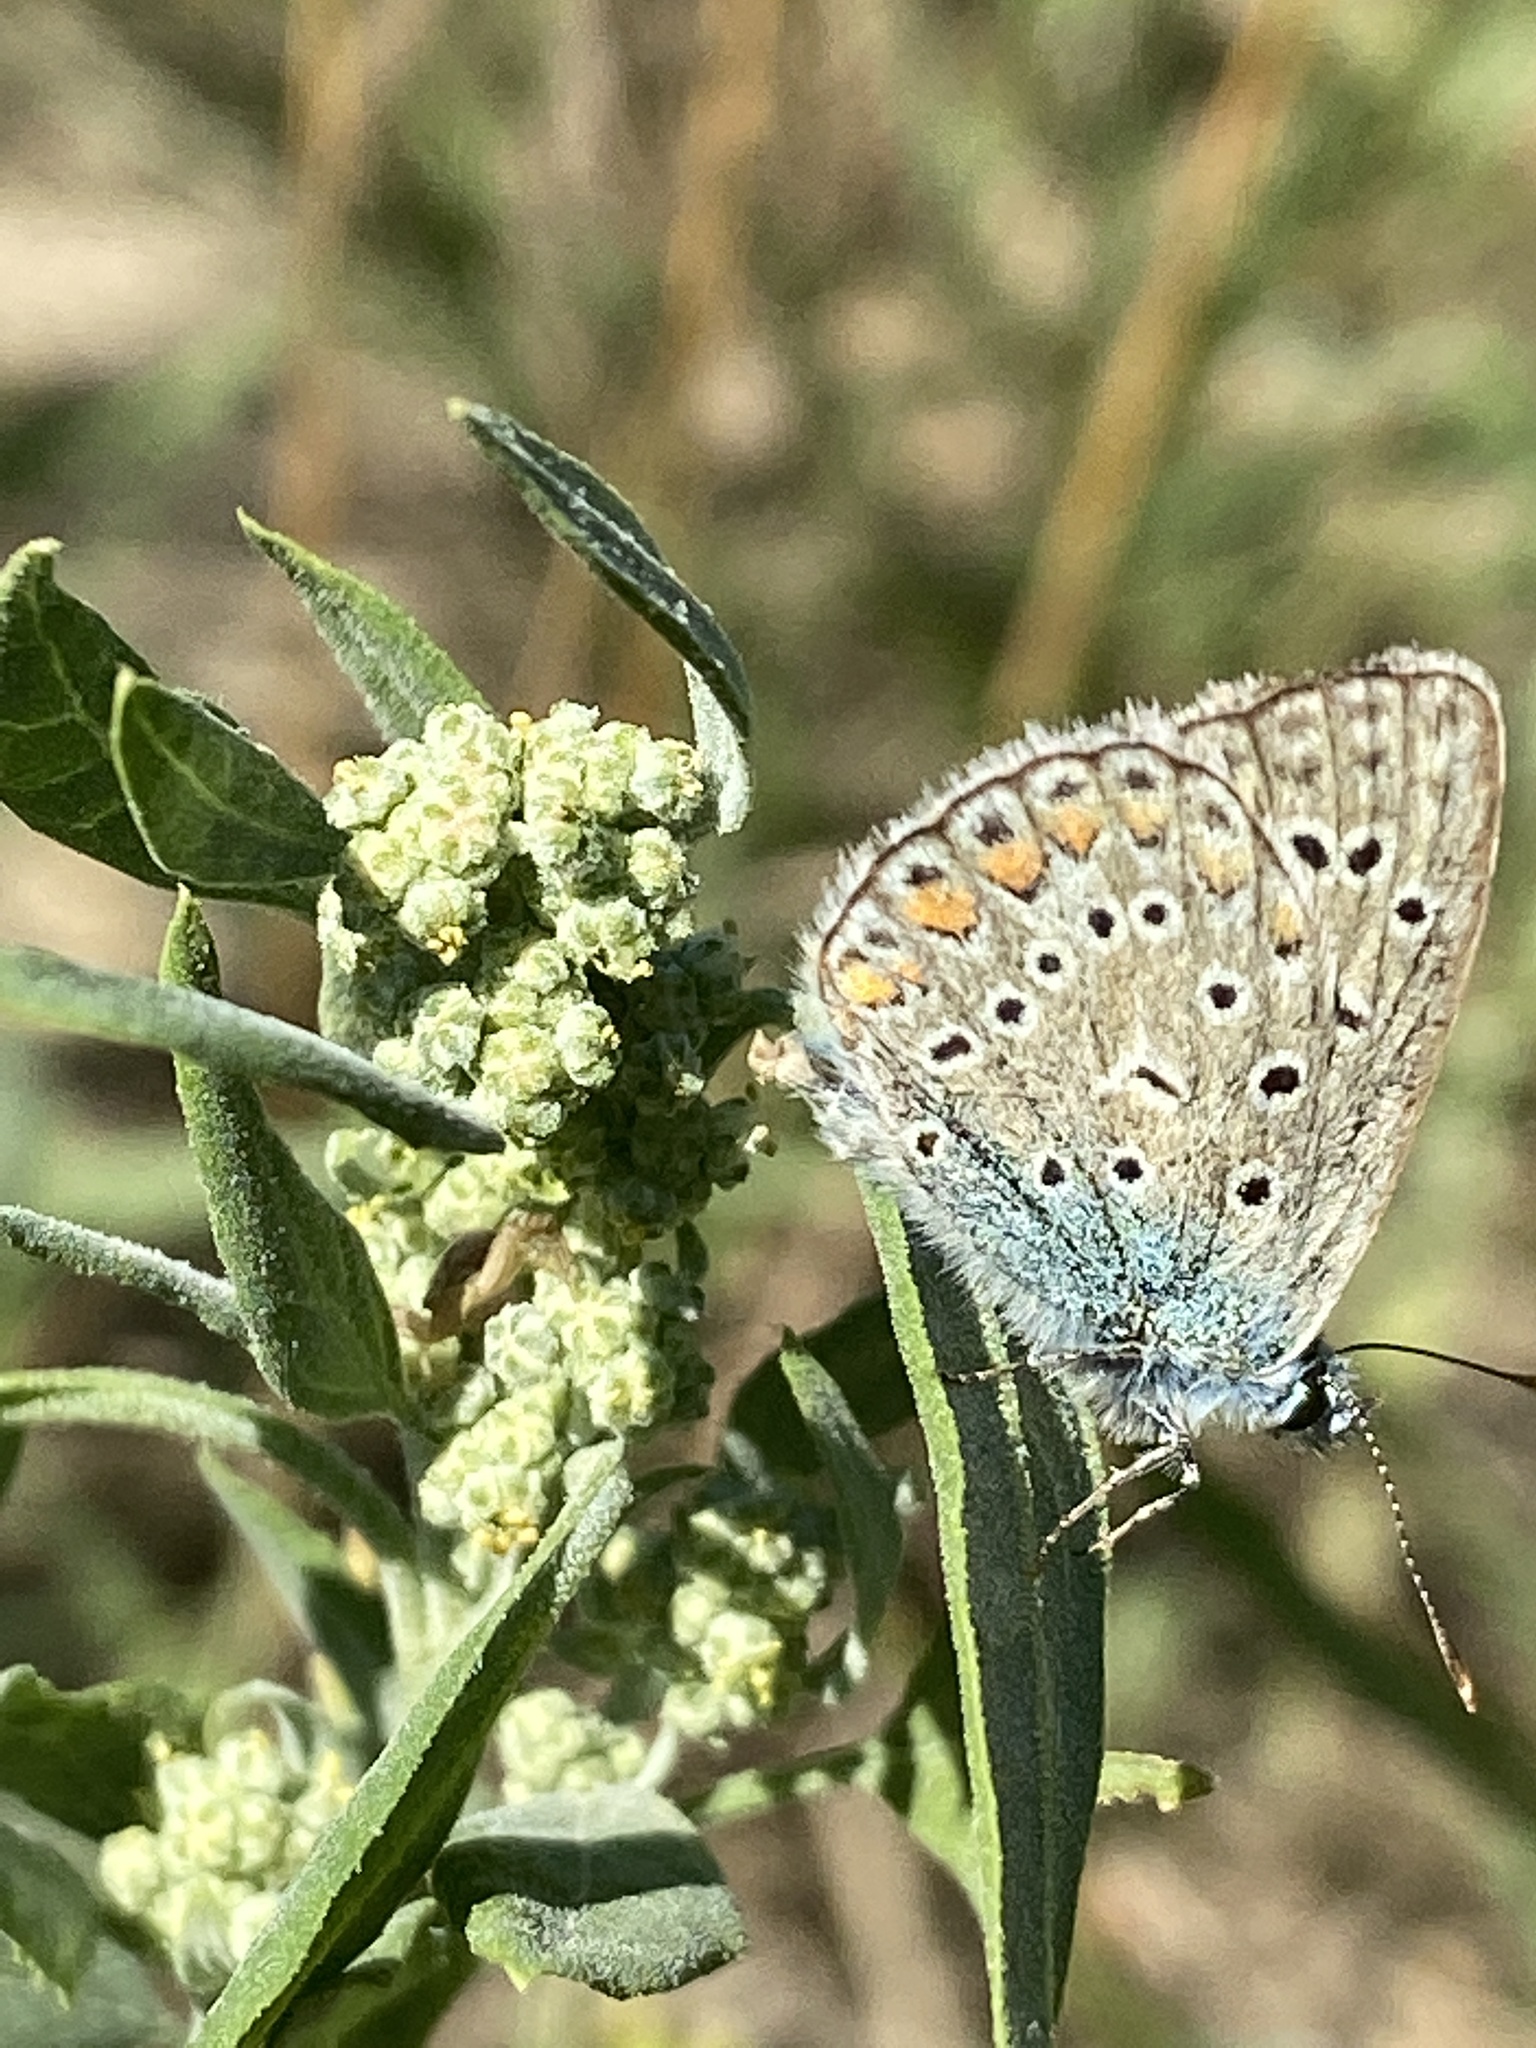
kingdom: Animalia
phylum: Arthropoda
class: Insecta
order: Lepidoptera
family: Lycaenidae
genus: Polyommatus
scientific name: Polyommatus icarus
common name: Common blue
